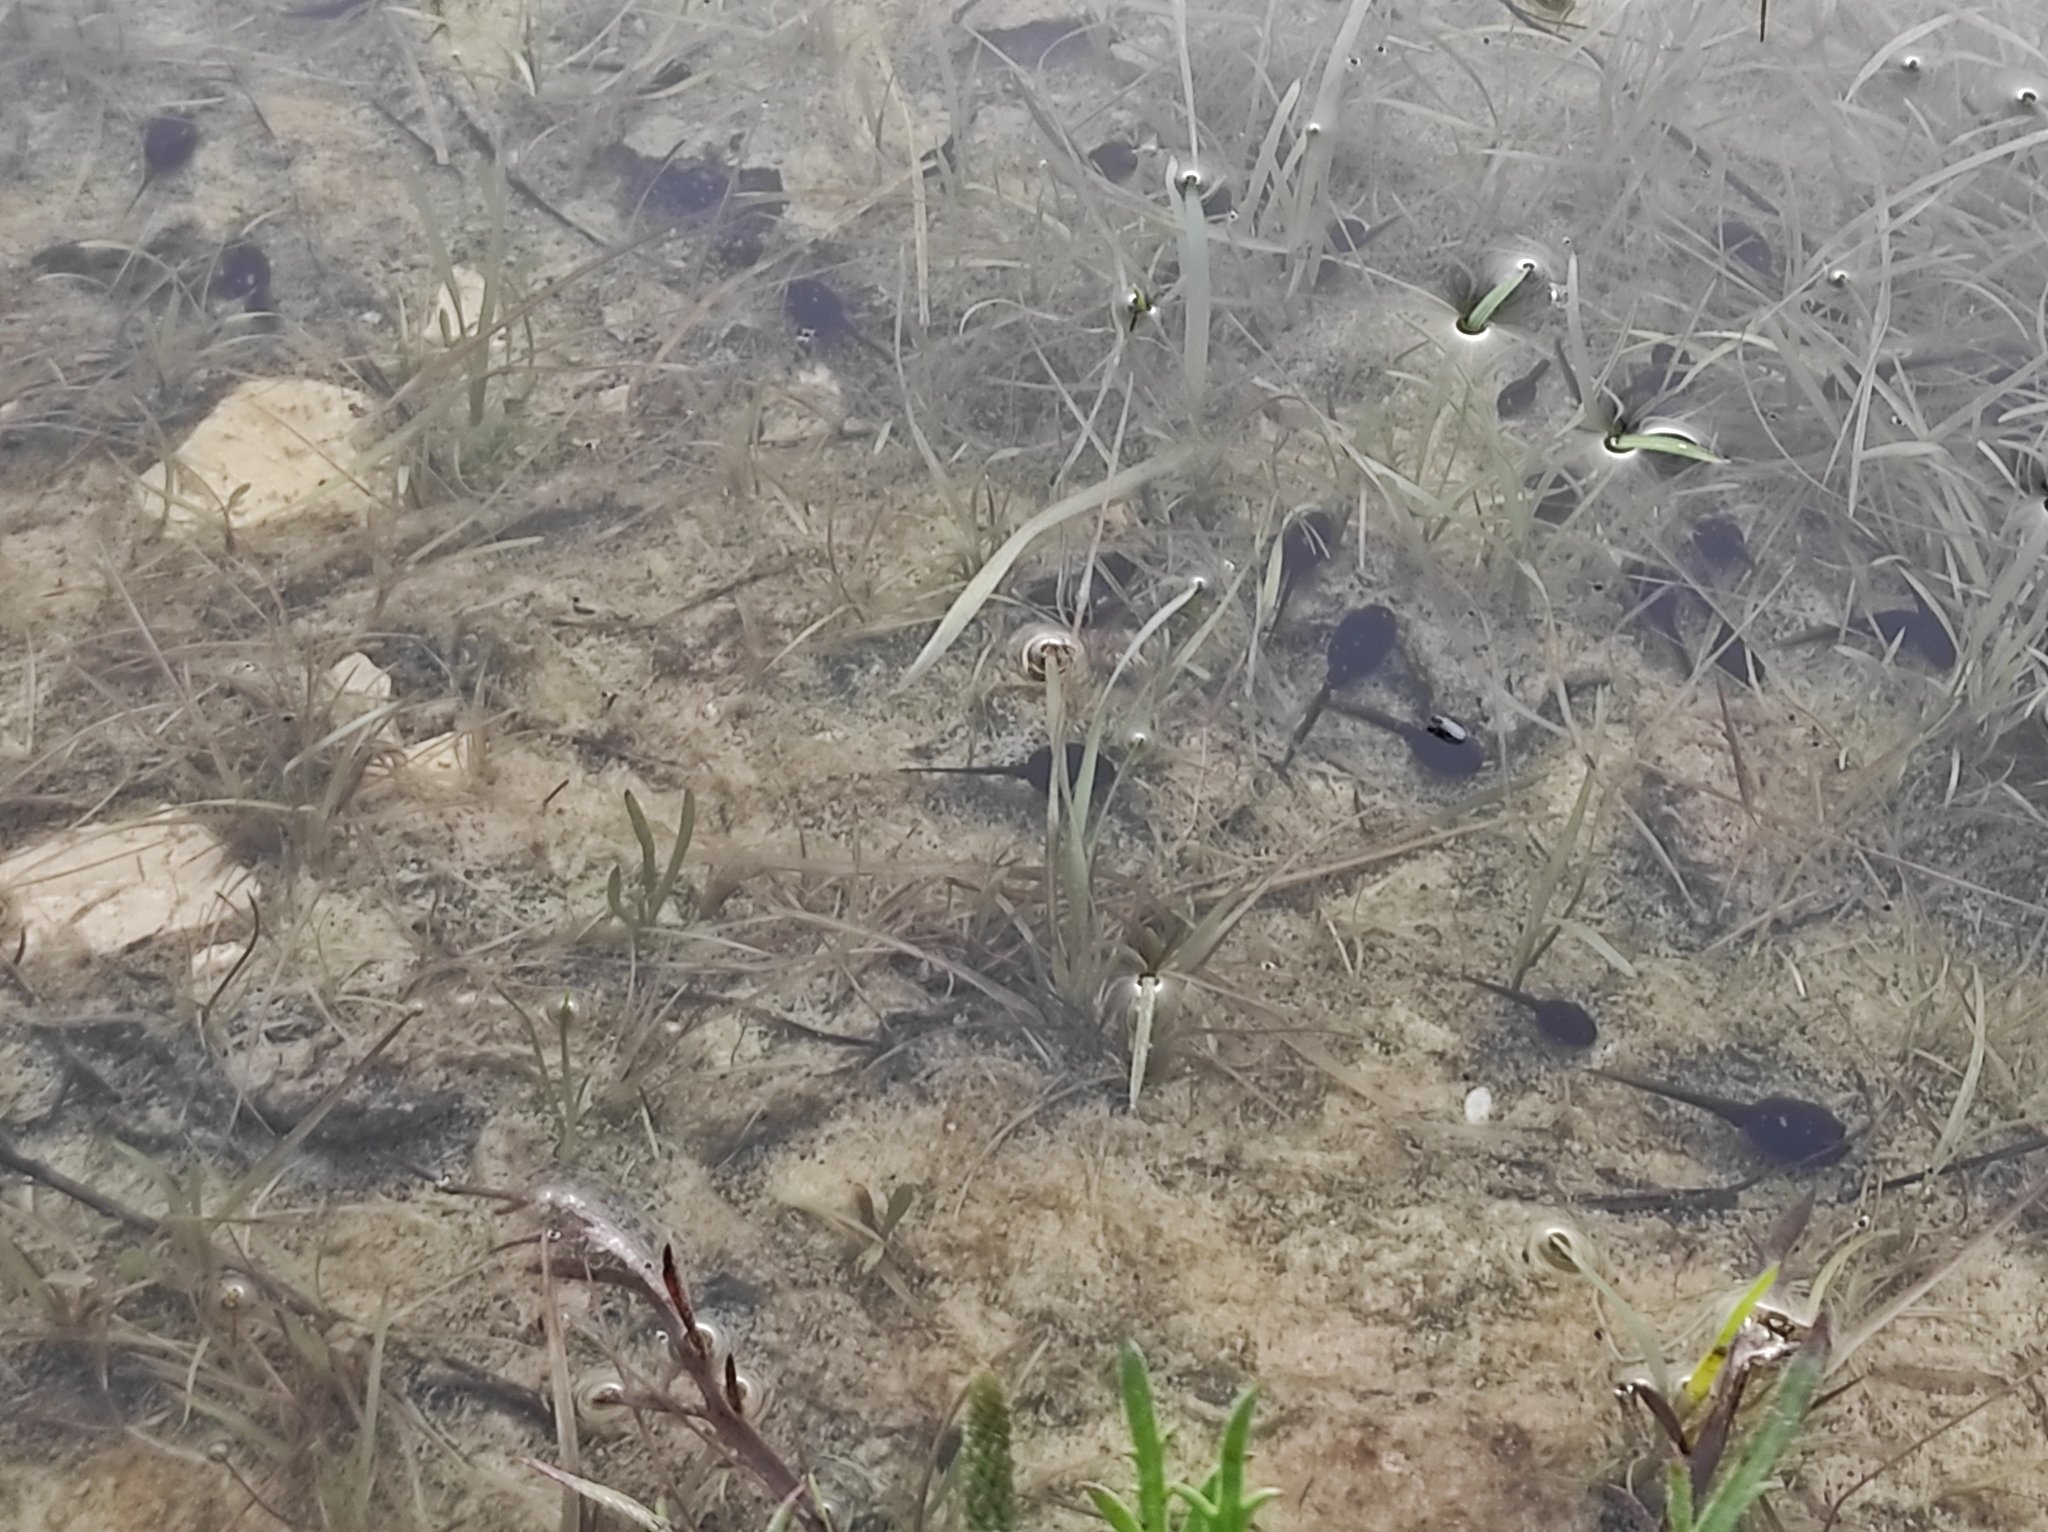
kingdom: Animalia
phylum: Chordata
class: Amphibia
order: Anura
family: Bufonidae
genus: Epidalea
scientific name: Epidalea calamita
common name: Natterjack toad
